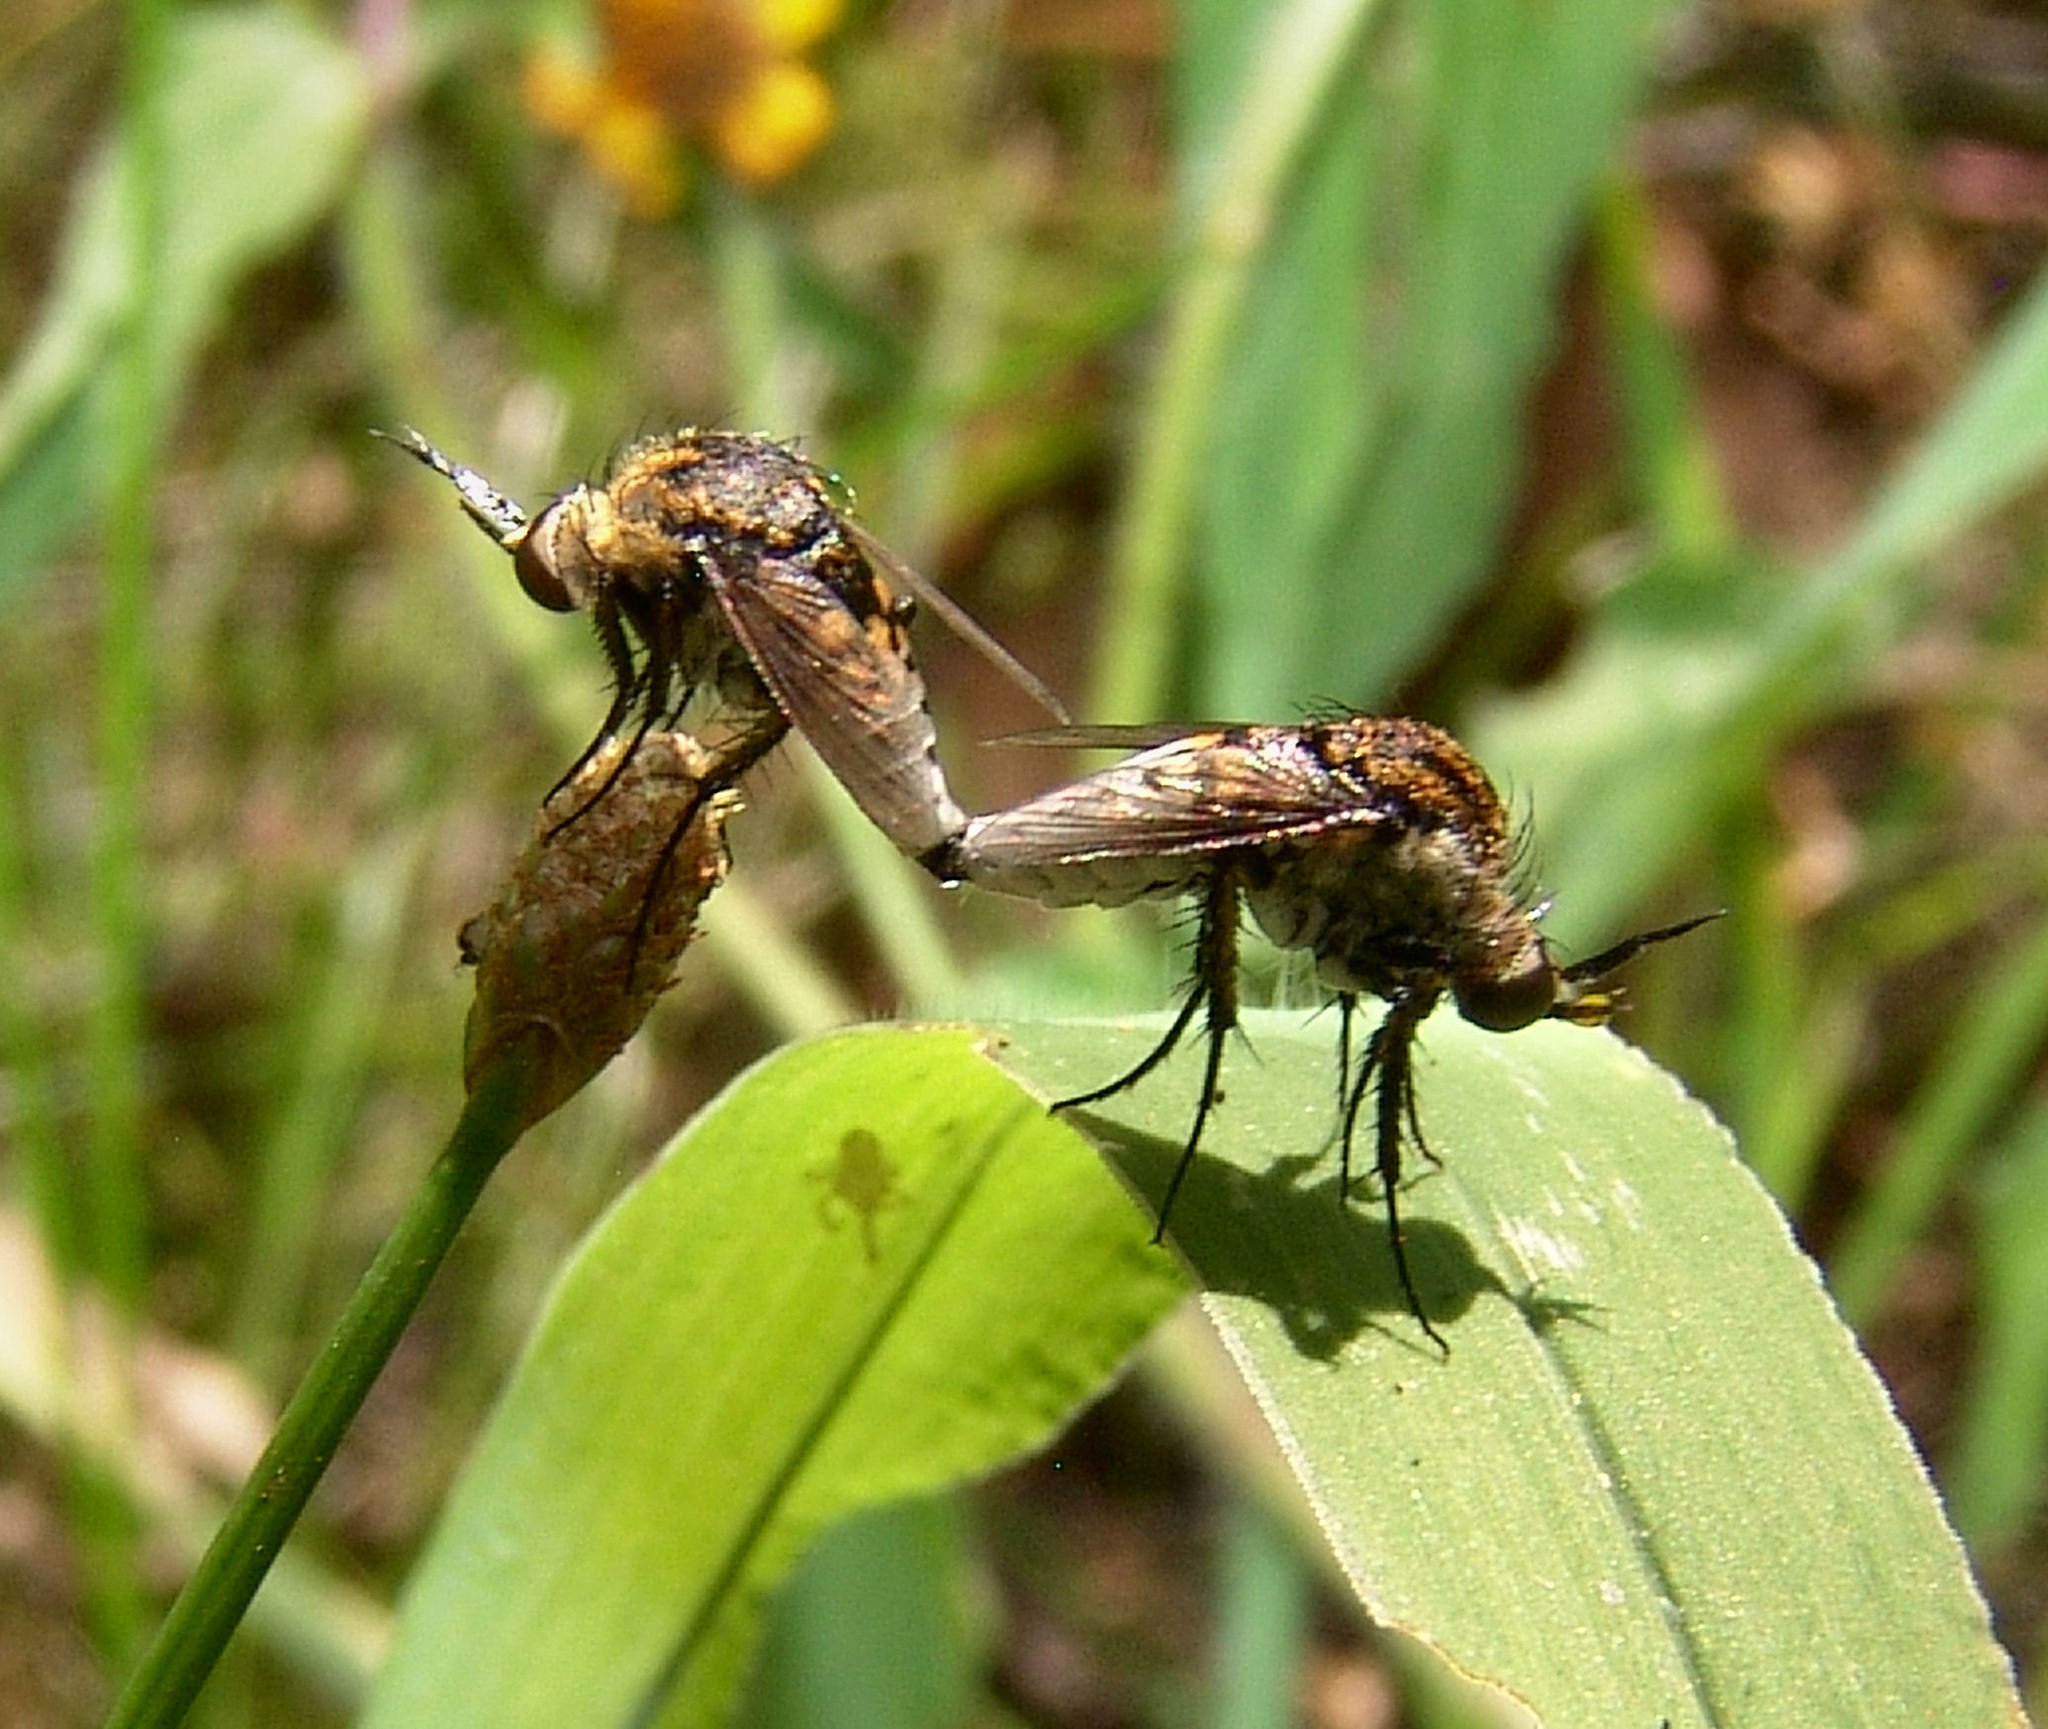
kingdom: Animalia
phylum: Arthropoda
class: Insecta
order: Diptera
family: Bombyliidae
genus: Toxophora
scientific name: Toxophora amphitea
